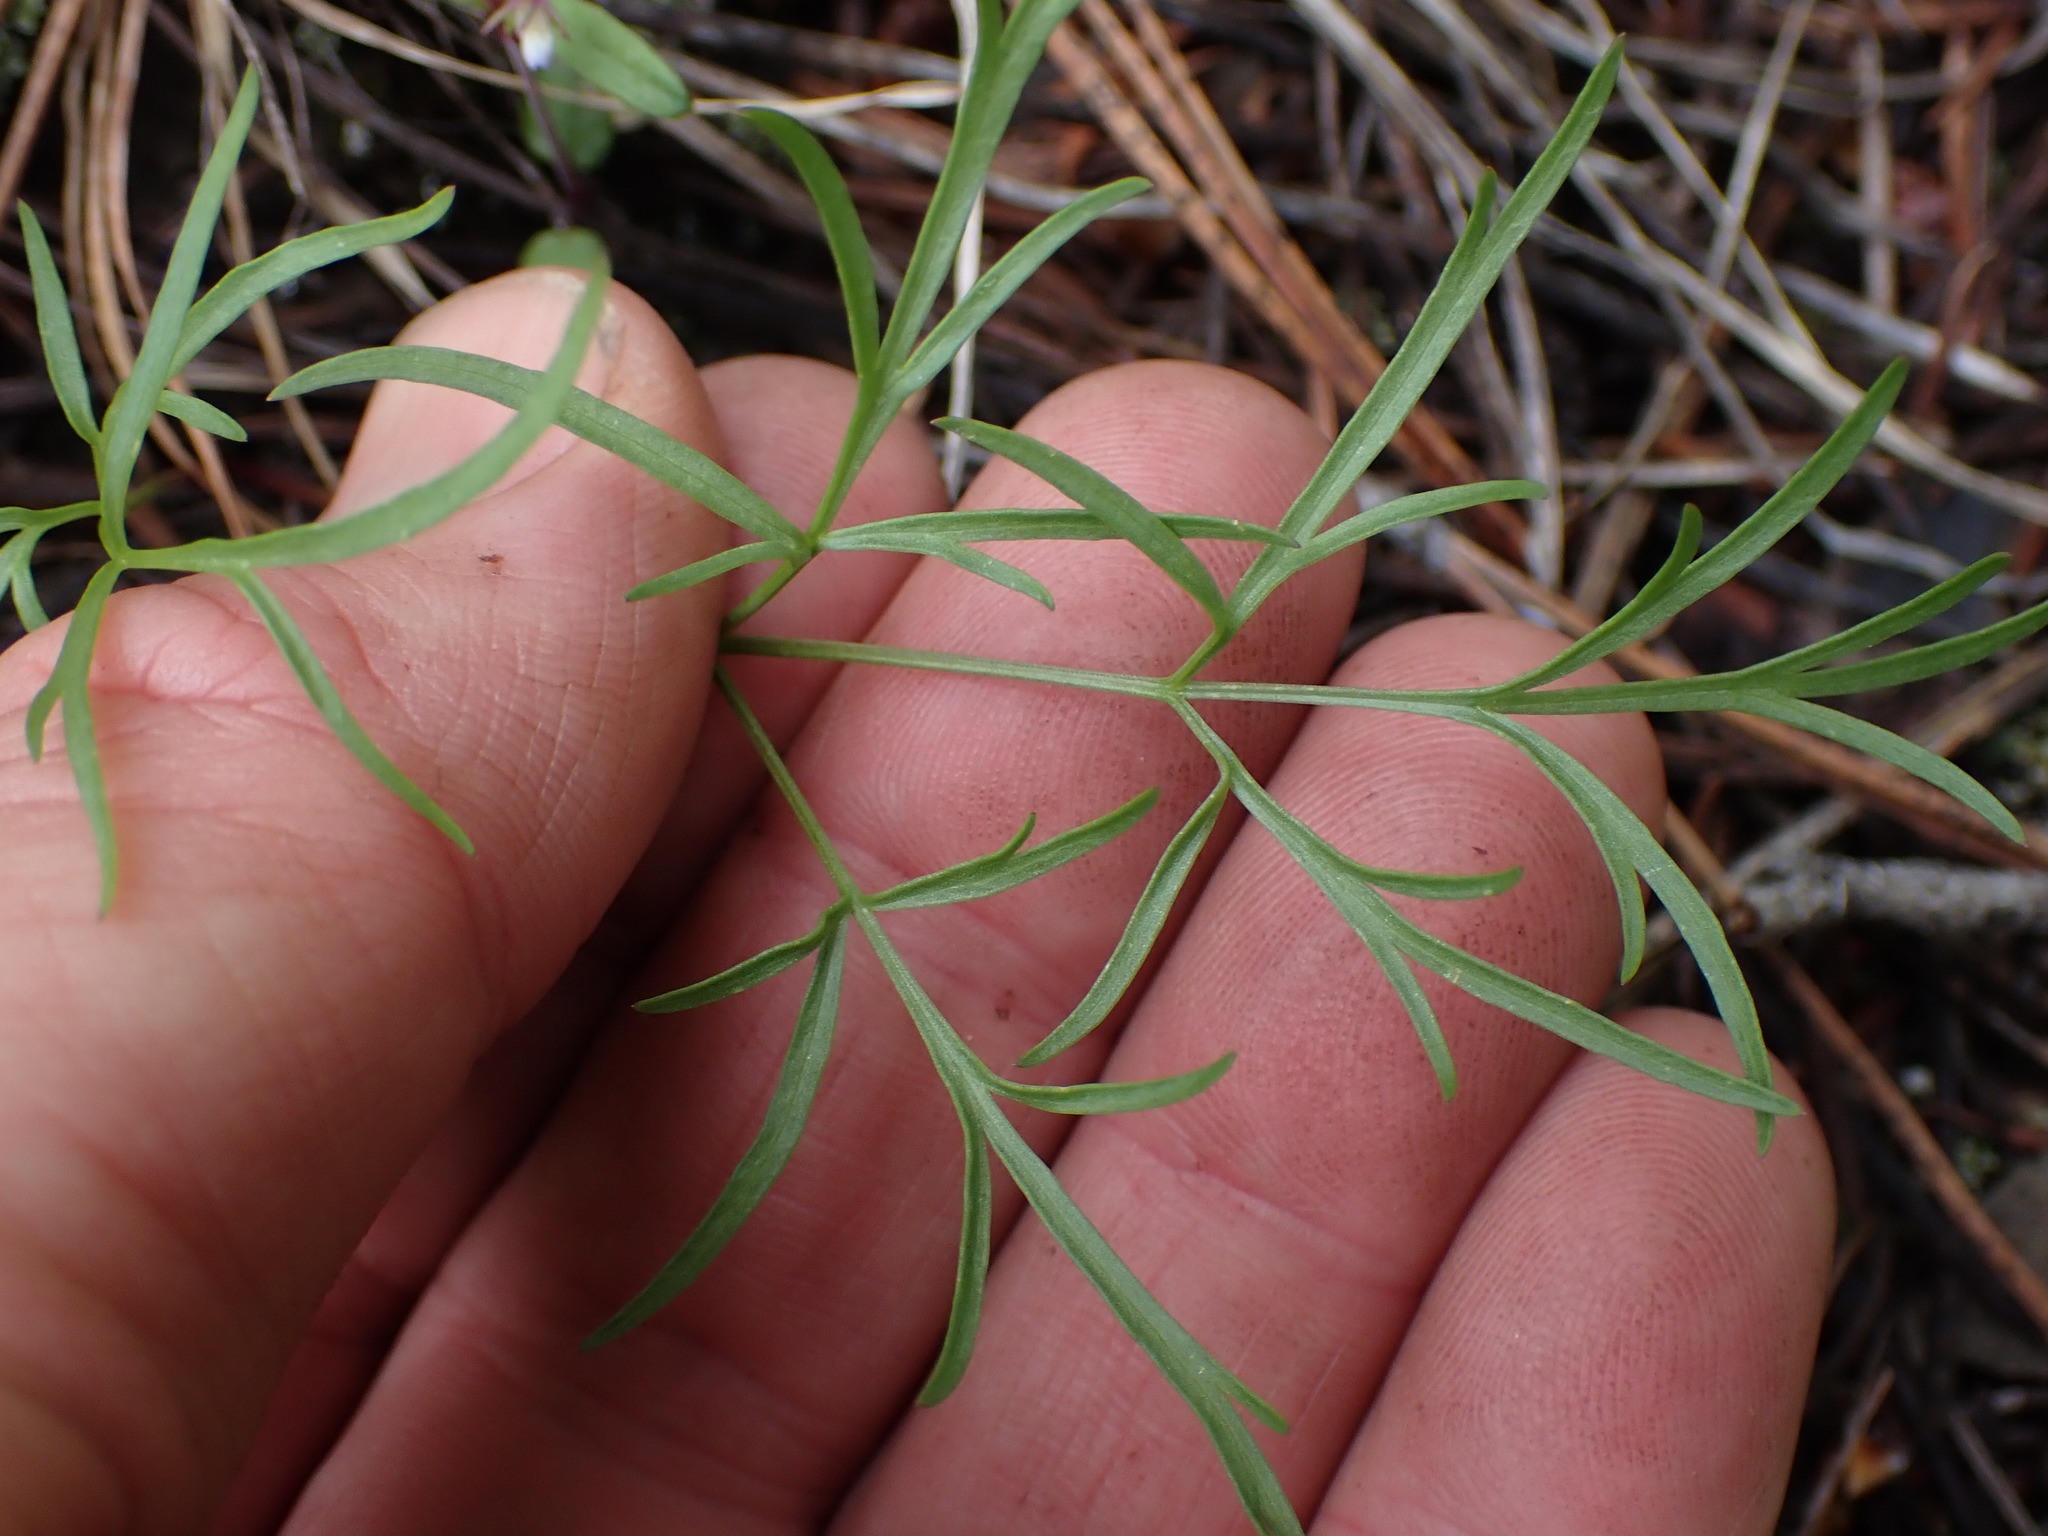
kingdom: Plantae
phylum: Tracheophyta
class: Magnoliopsida
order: Apiales
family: Apiaceae
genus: Lomatium
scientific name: Lomatium geyeri
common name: Geyer's biscuitroot
